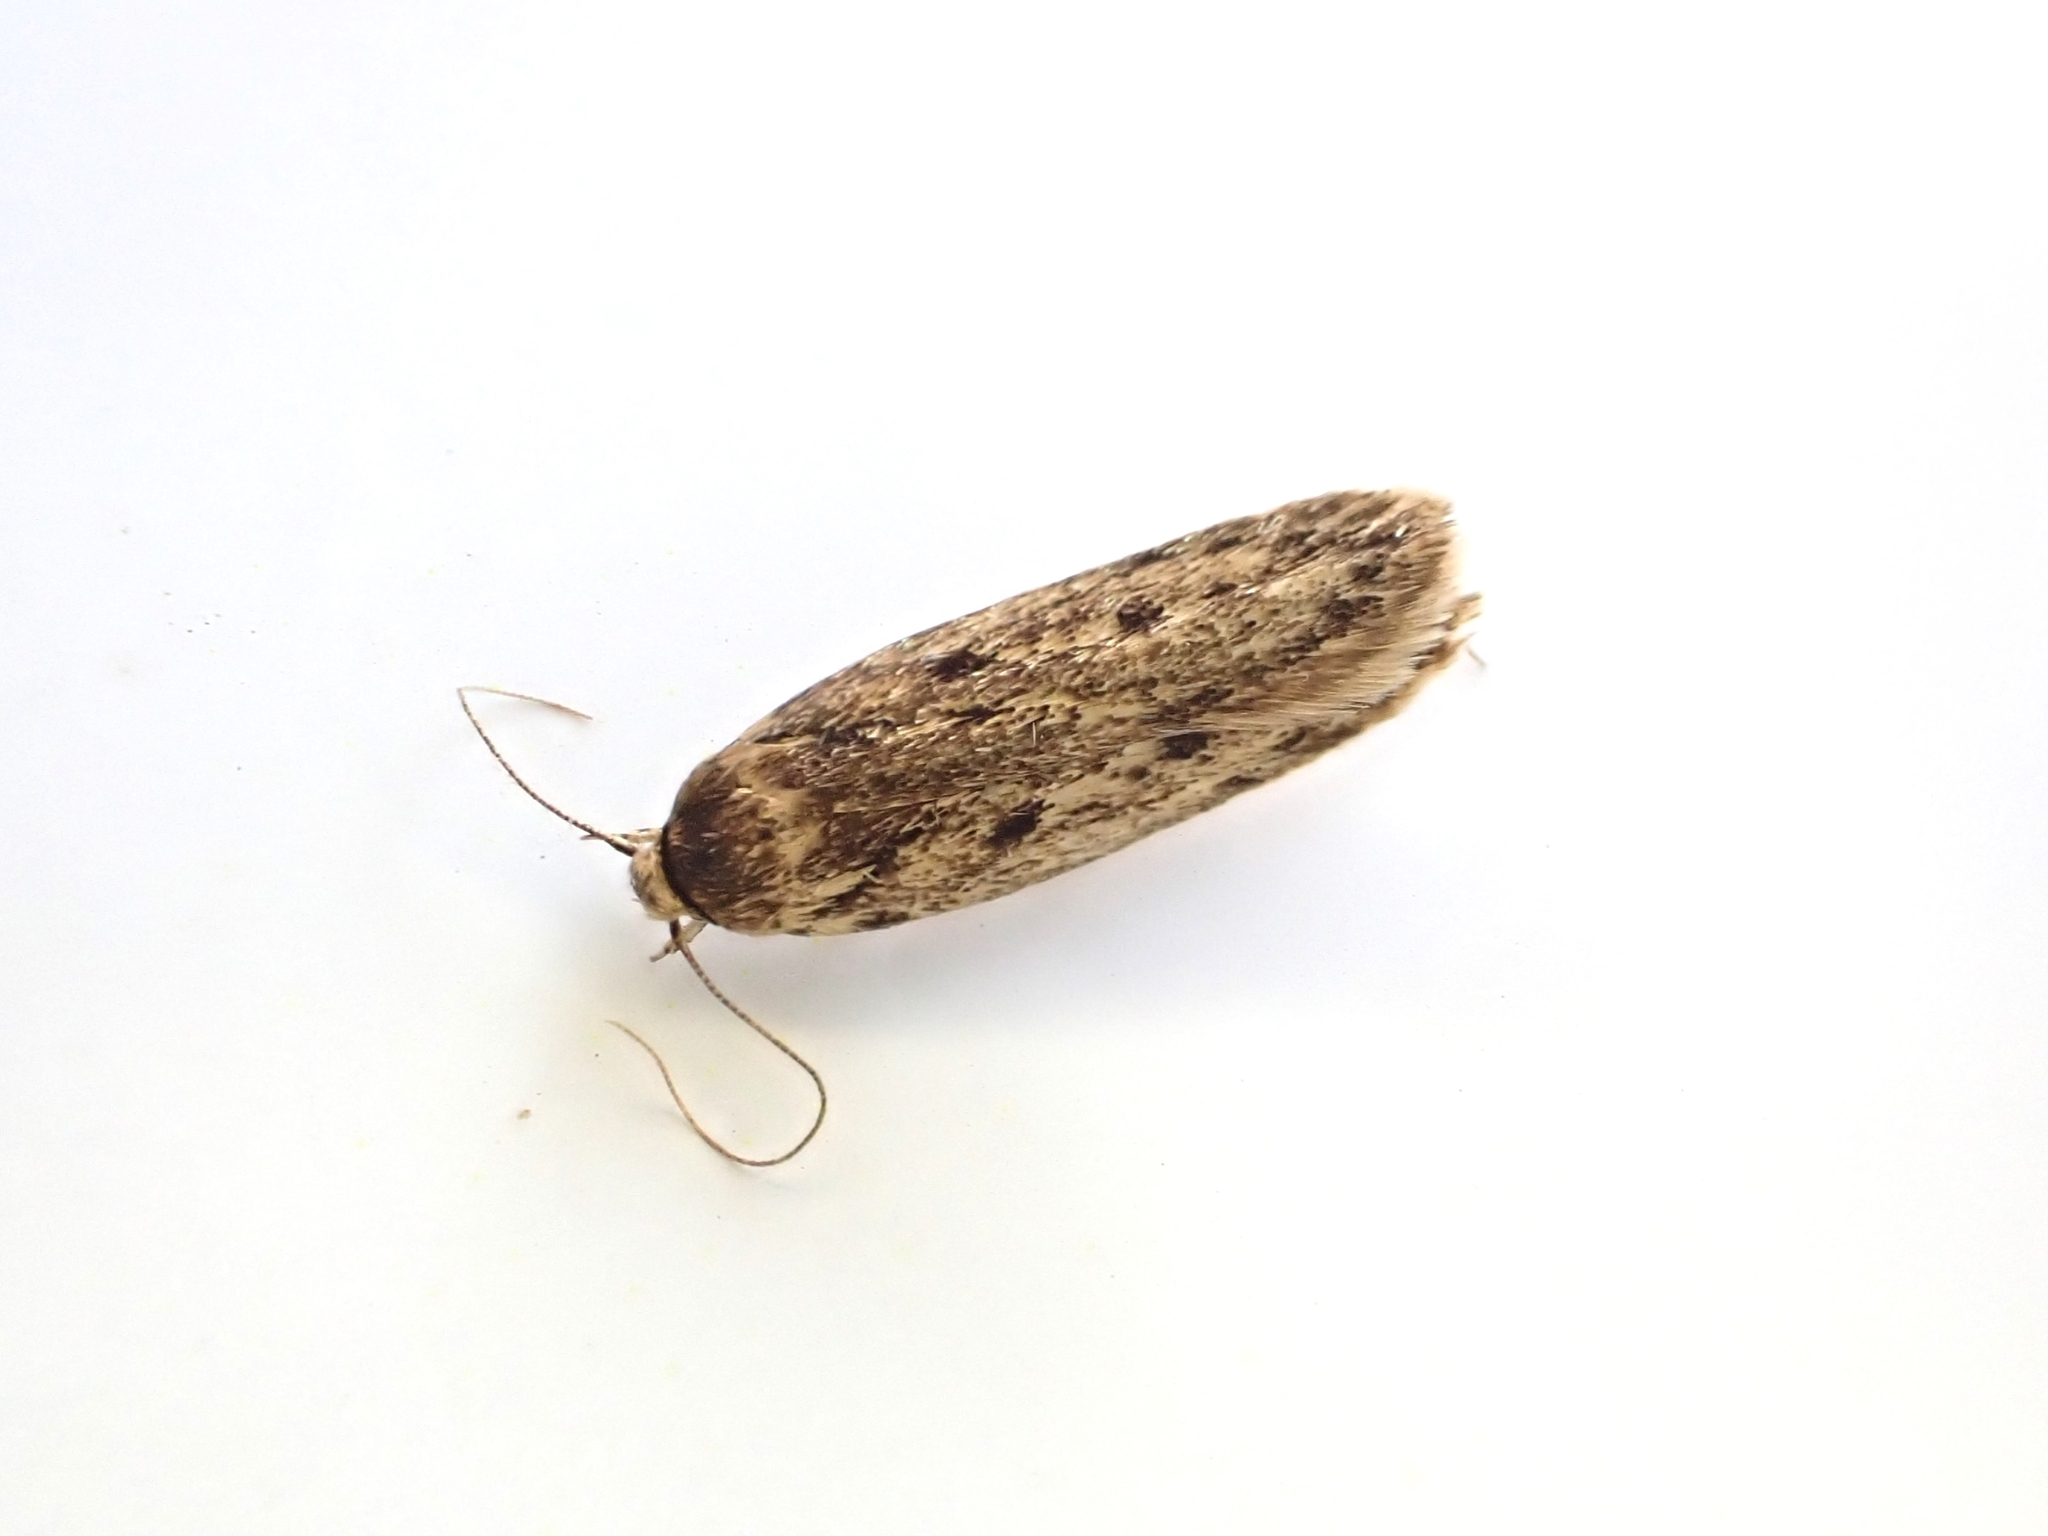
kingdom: Animalia
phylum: Arthropoda
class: Insecta
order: Lepidoptera
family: Oecophoridae
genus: Hofmannophila
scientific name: Hofmannophila pseudospretella
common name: Brown house moth
